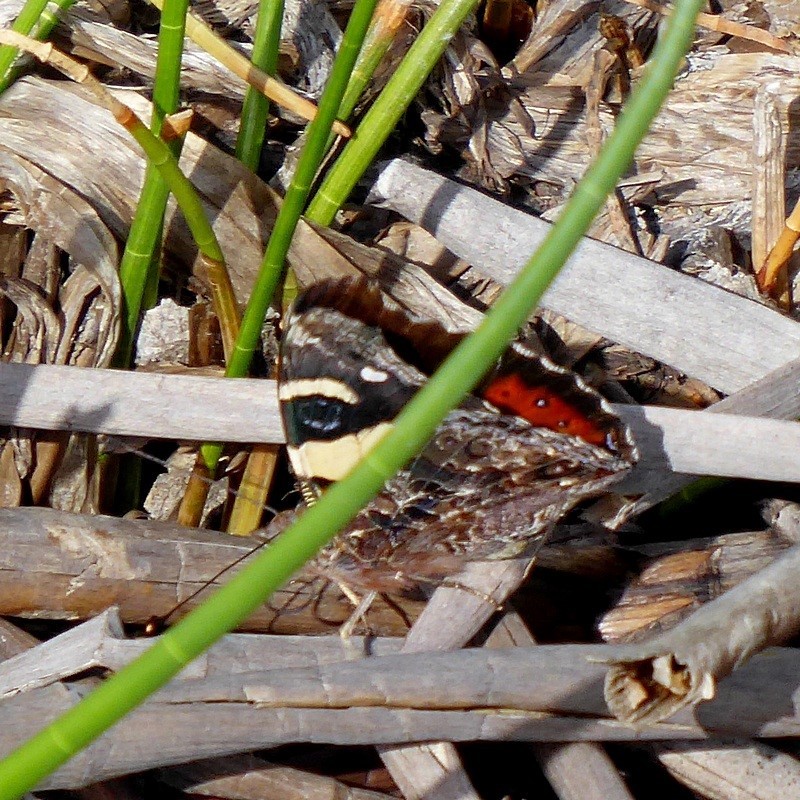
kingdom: Animalia
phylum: Arthropoda
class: Insecta
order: Lepidoptera
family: Nymphalidae
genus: Vanessa
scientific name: Vanessa itea
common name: Yellow admiral
